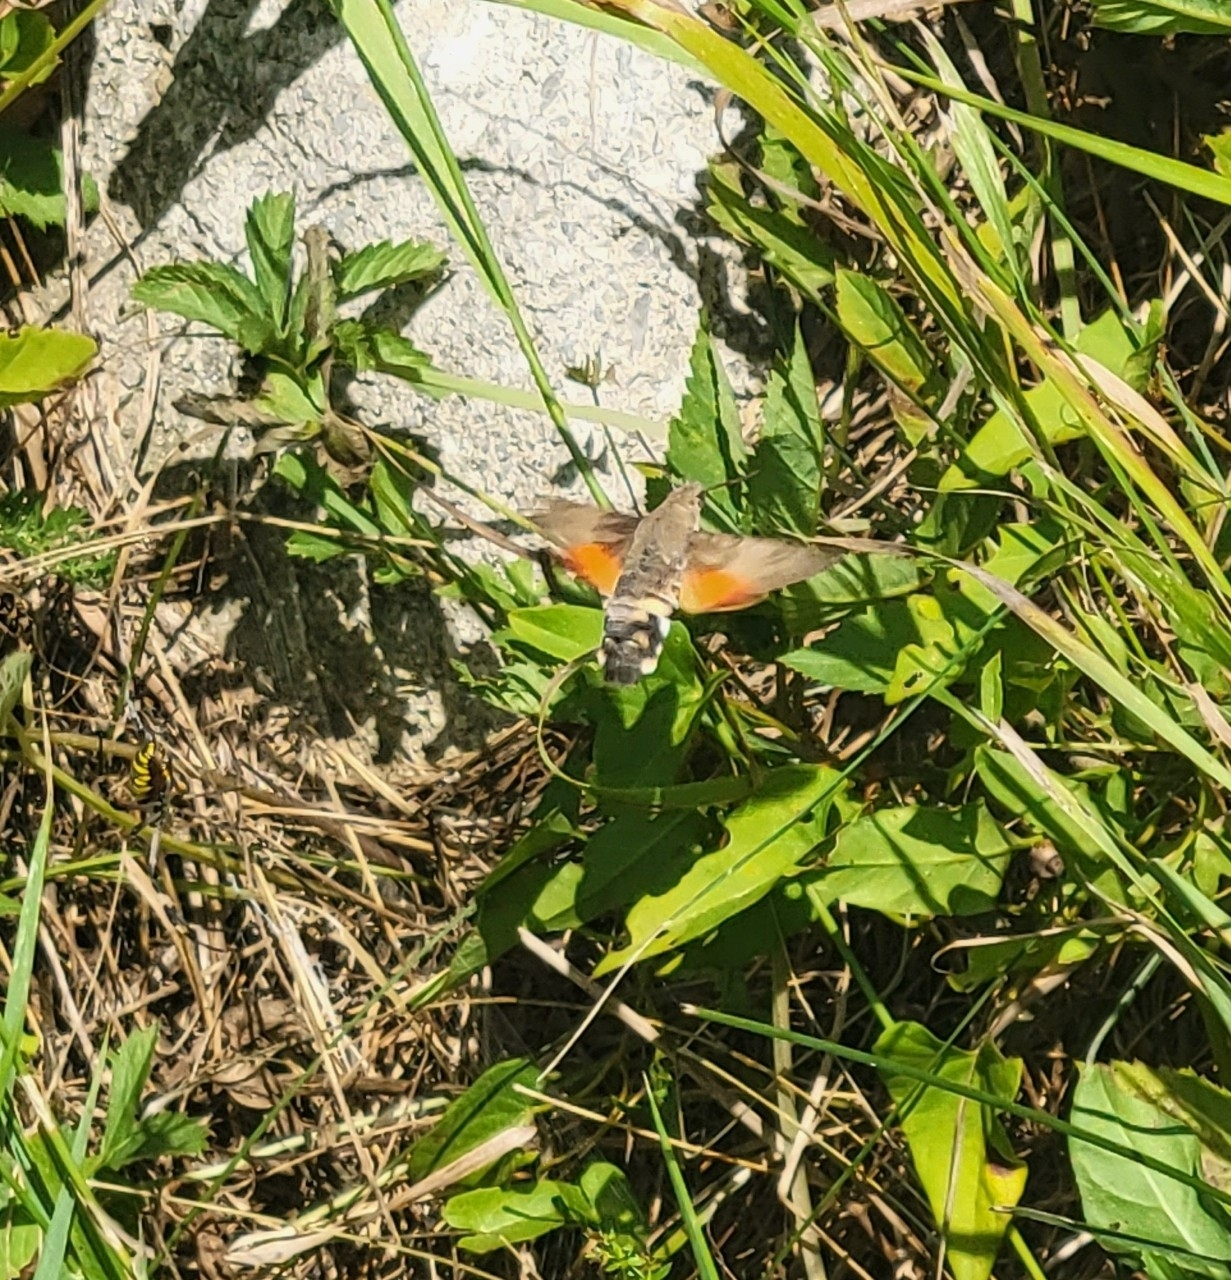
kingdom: Animalia
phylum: Arthropoda
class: Insecta
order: Lepidoptera
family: Sphingidae
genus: Macroglossum
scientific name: Macroglossum stellatarum
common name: Humming-bird hawk-moth
